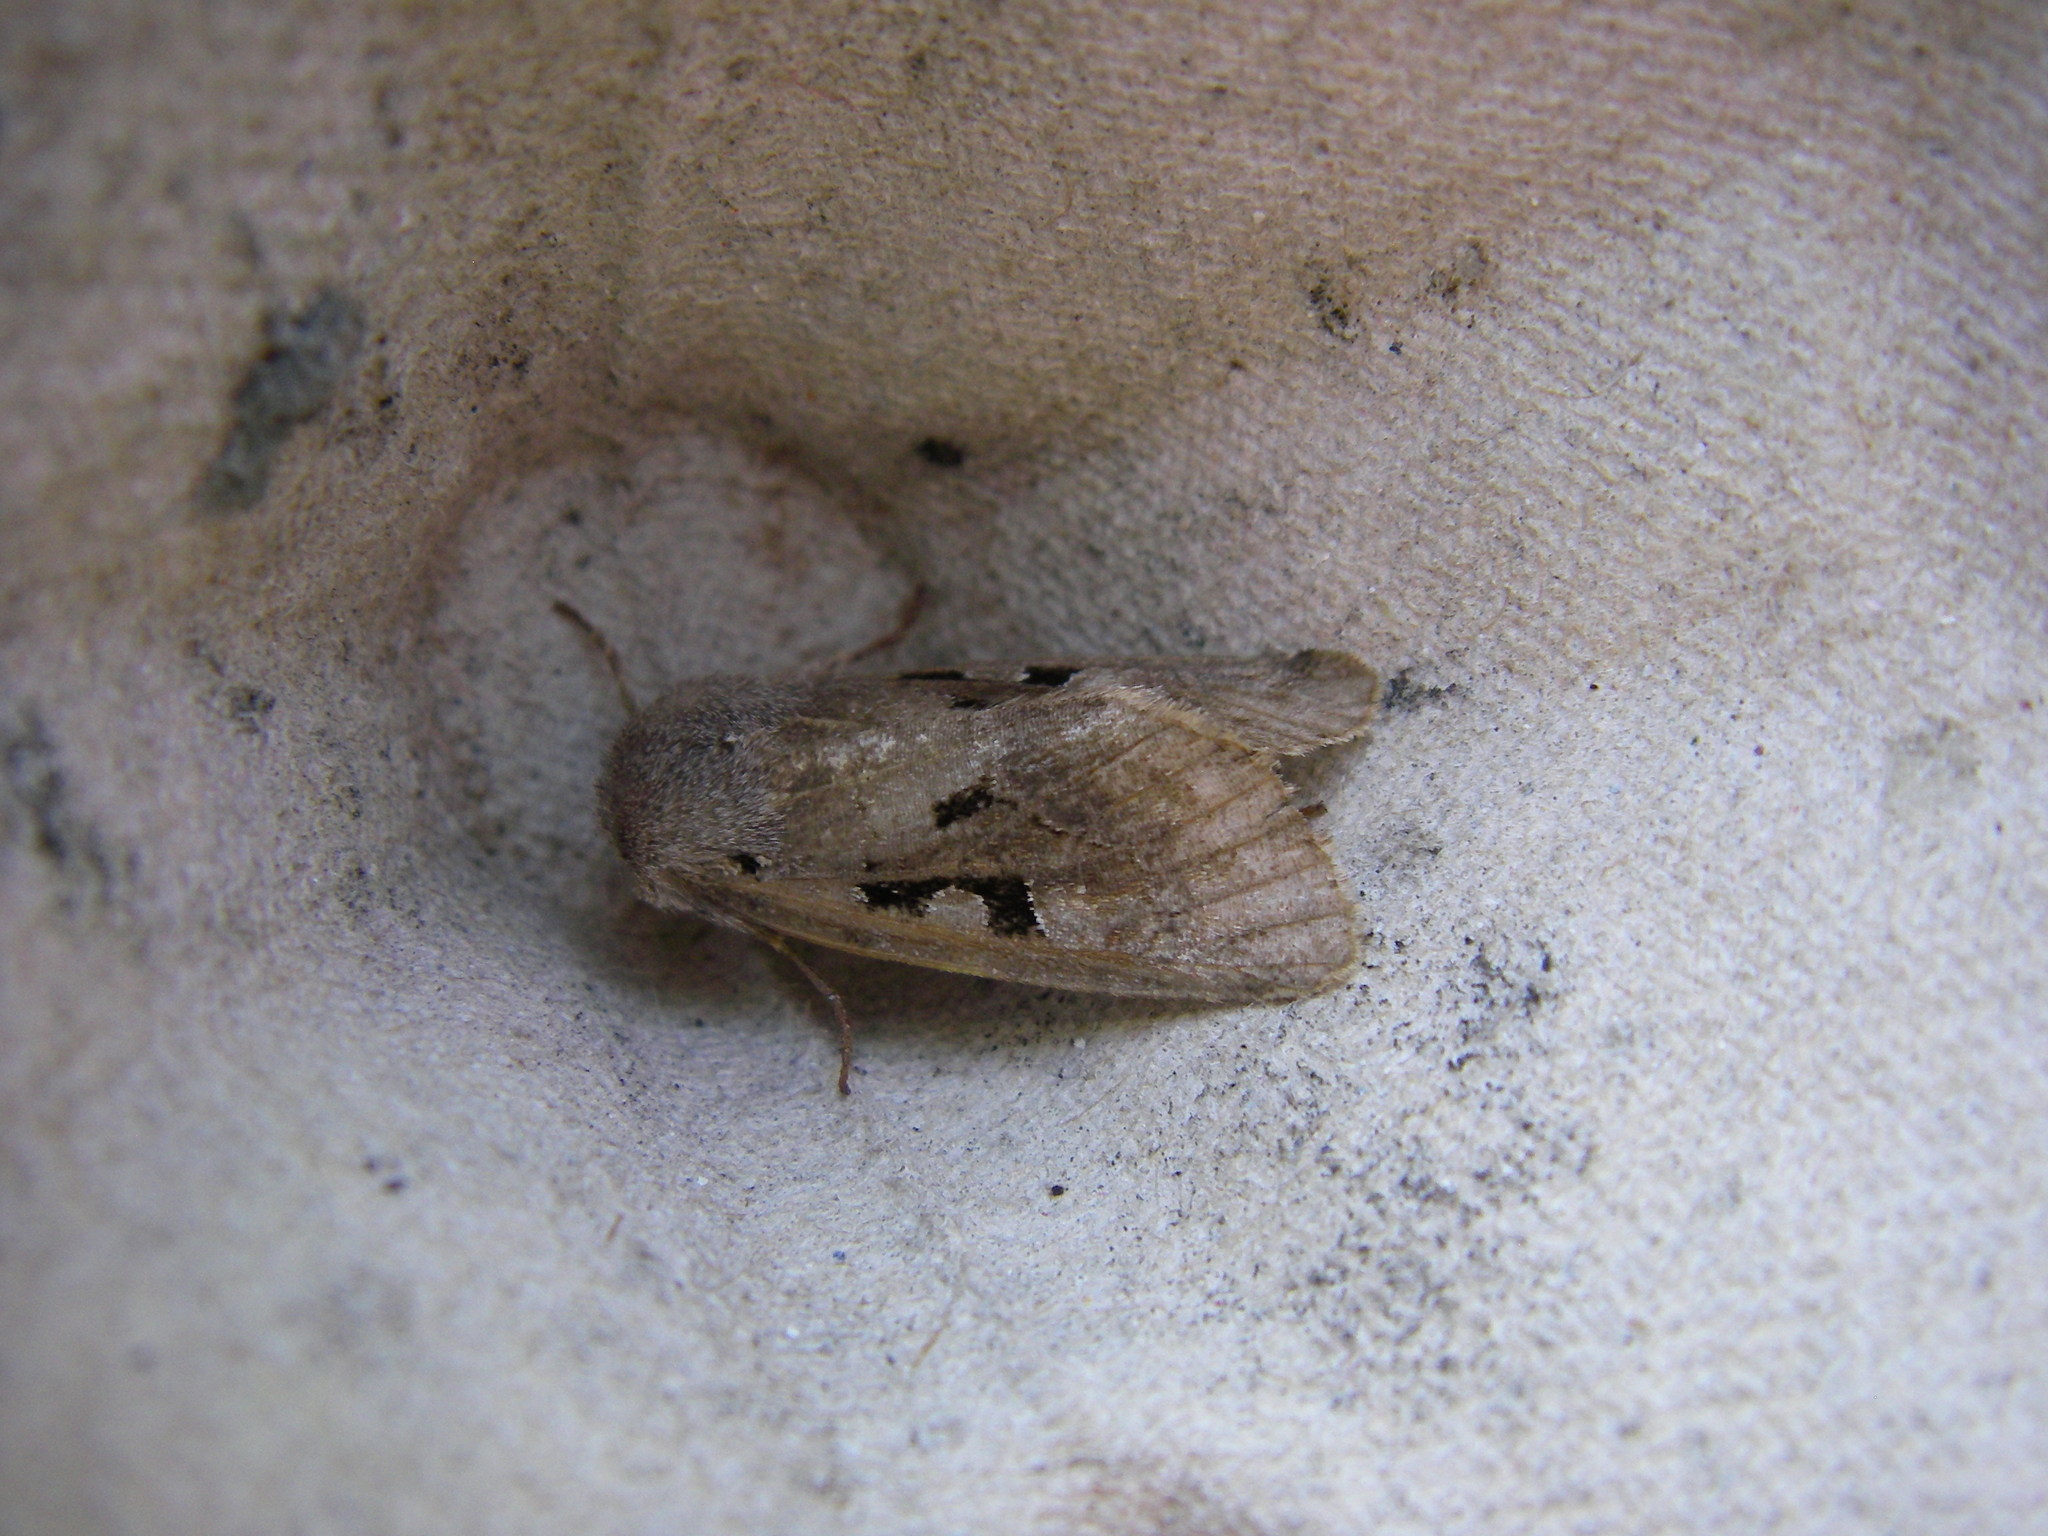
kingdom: Animalia
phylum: Arthropoda
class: Insecta
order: Lepidoptera
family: Noctuidae
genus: Orthosia
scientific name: Orthosia gothica
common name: Hebrew character
